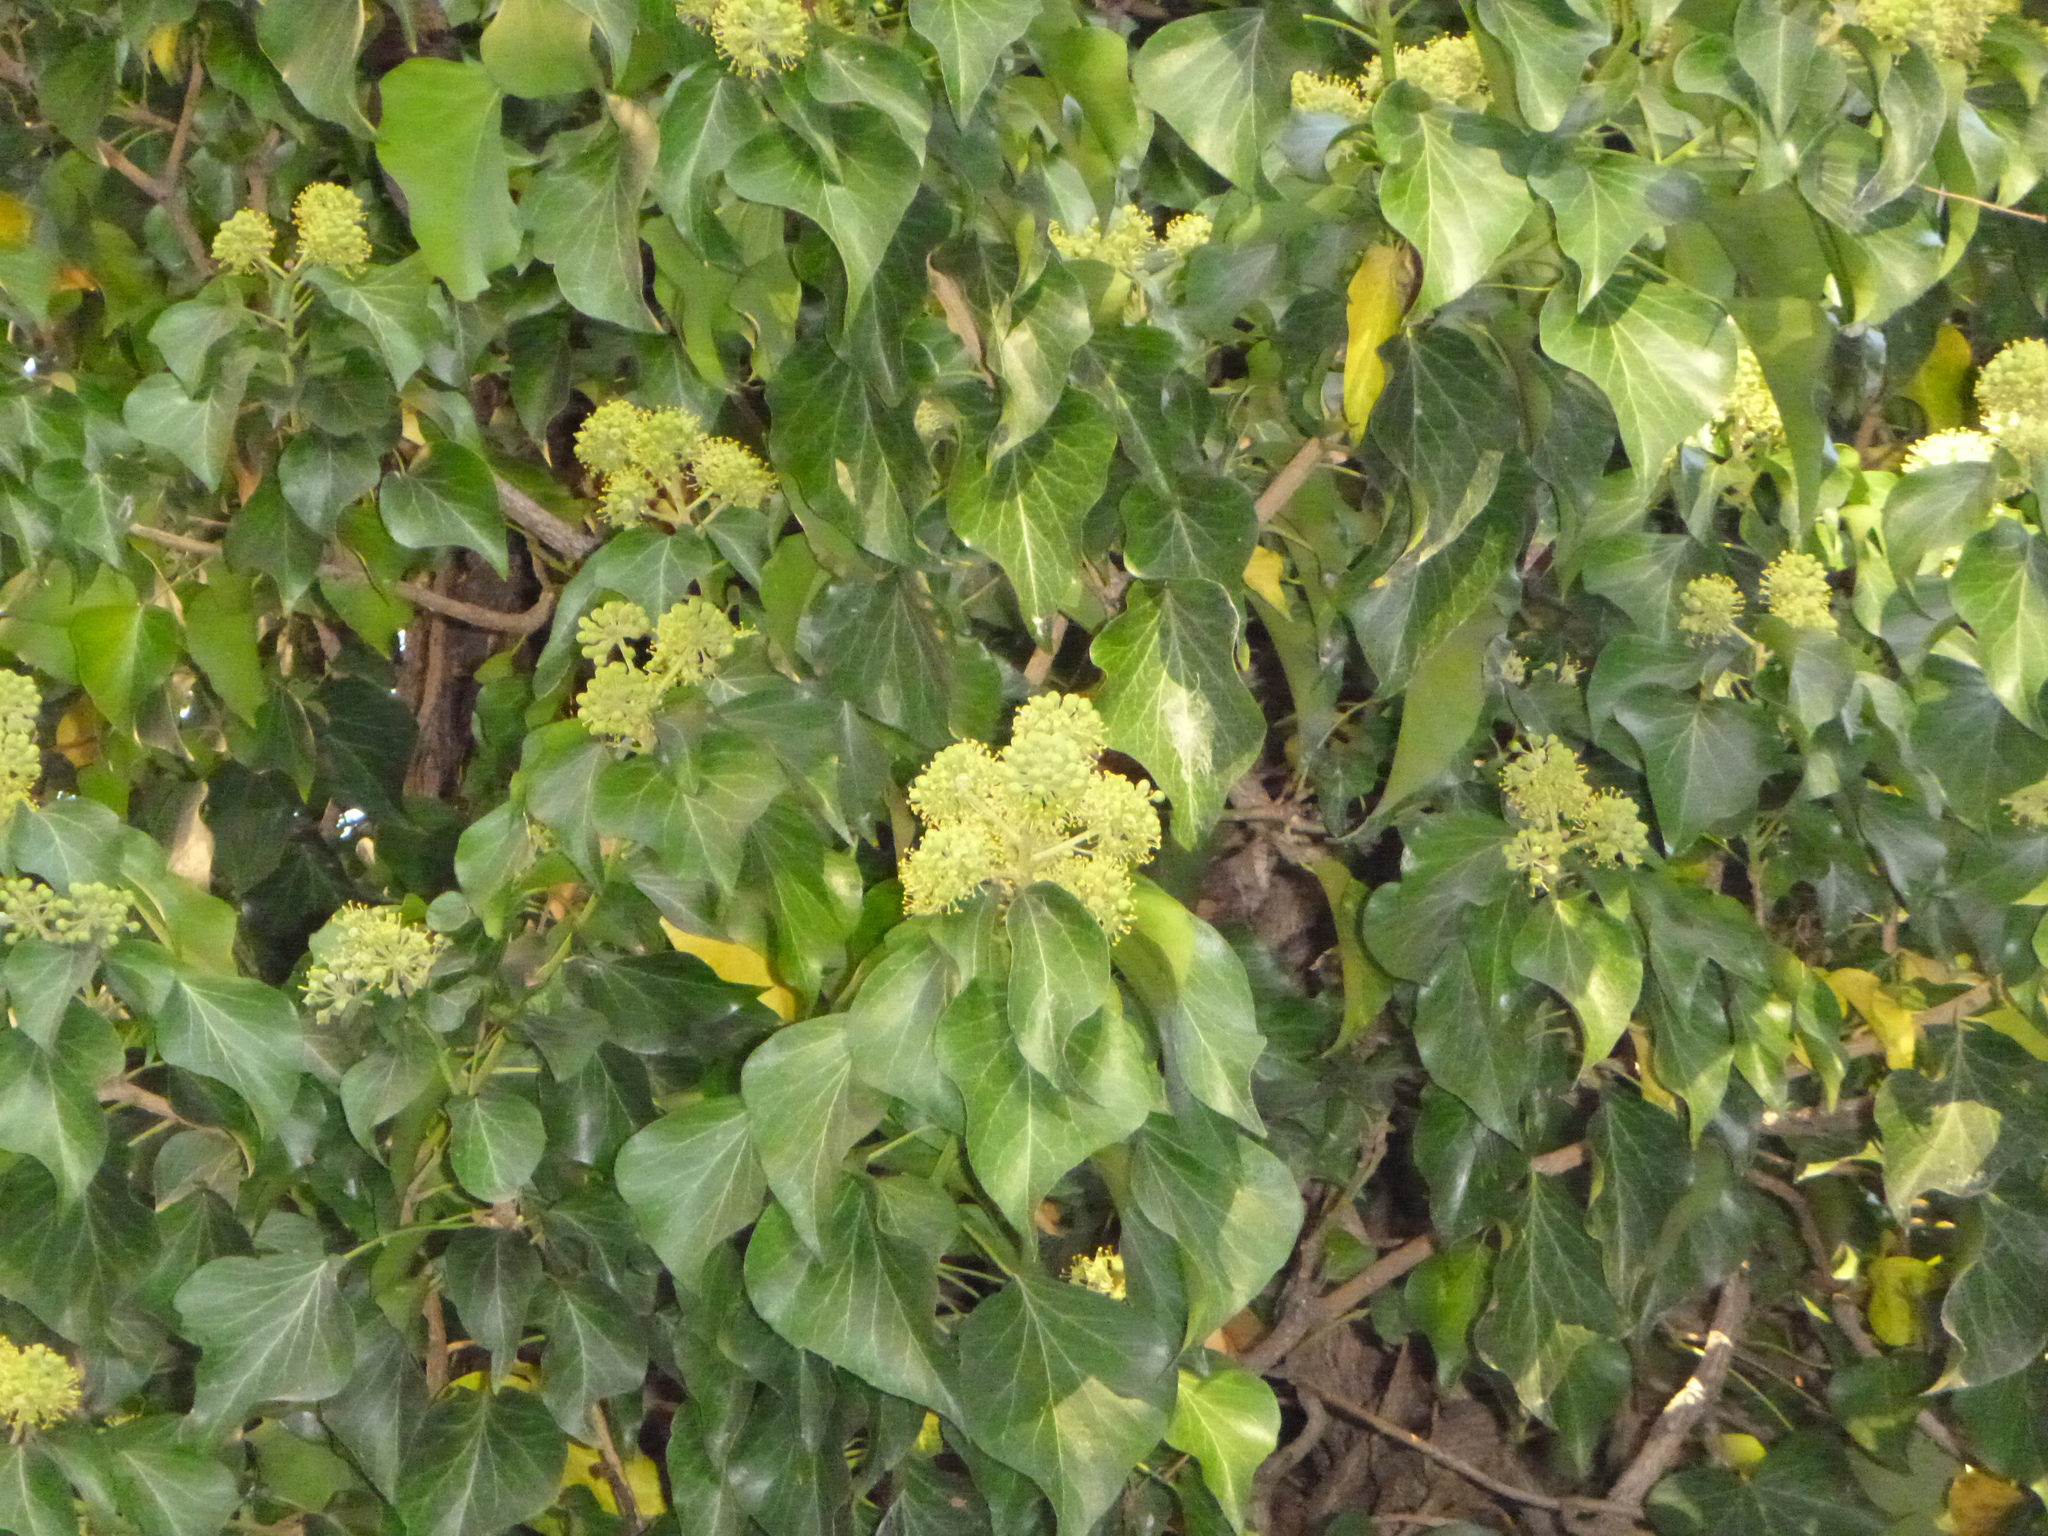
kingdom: Plantae
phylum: Tracheophyta
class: Magnoliopsida
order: Apiales
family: Araliaceae
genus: Hedera
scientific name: Hedera helix
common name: Ivy
